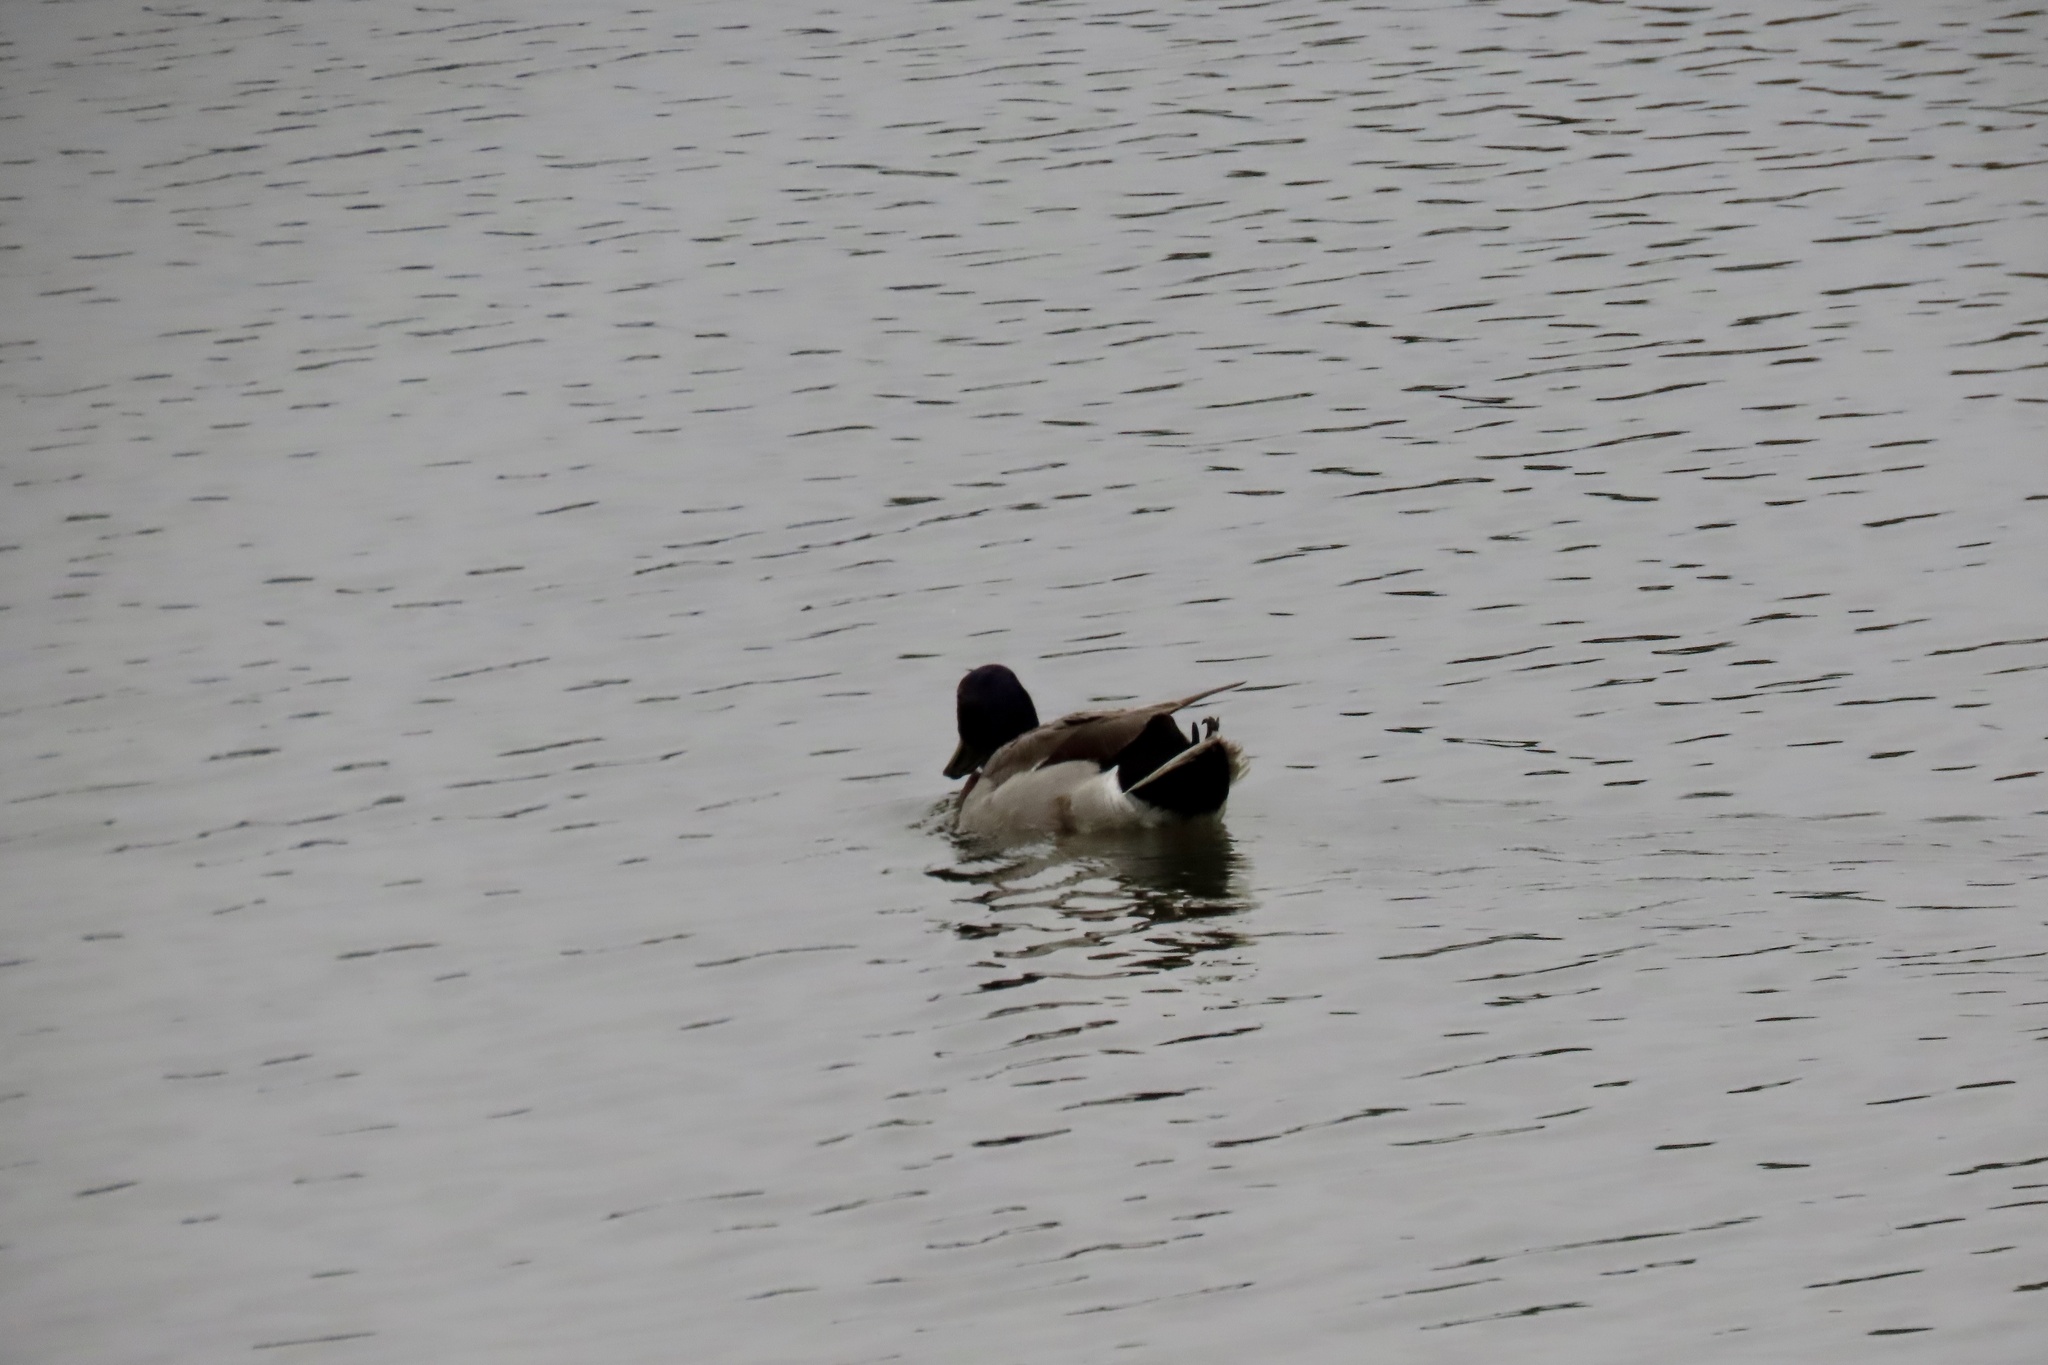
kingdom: Animalia
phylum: Chordata
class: Aves
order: Anseriformes
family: Anatidae
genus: Anas
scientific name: Anas platyrhynchos
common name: Mallard
